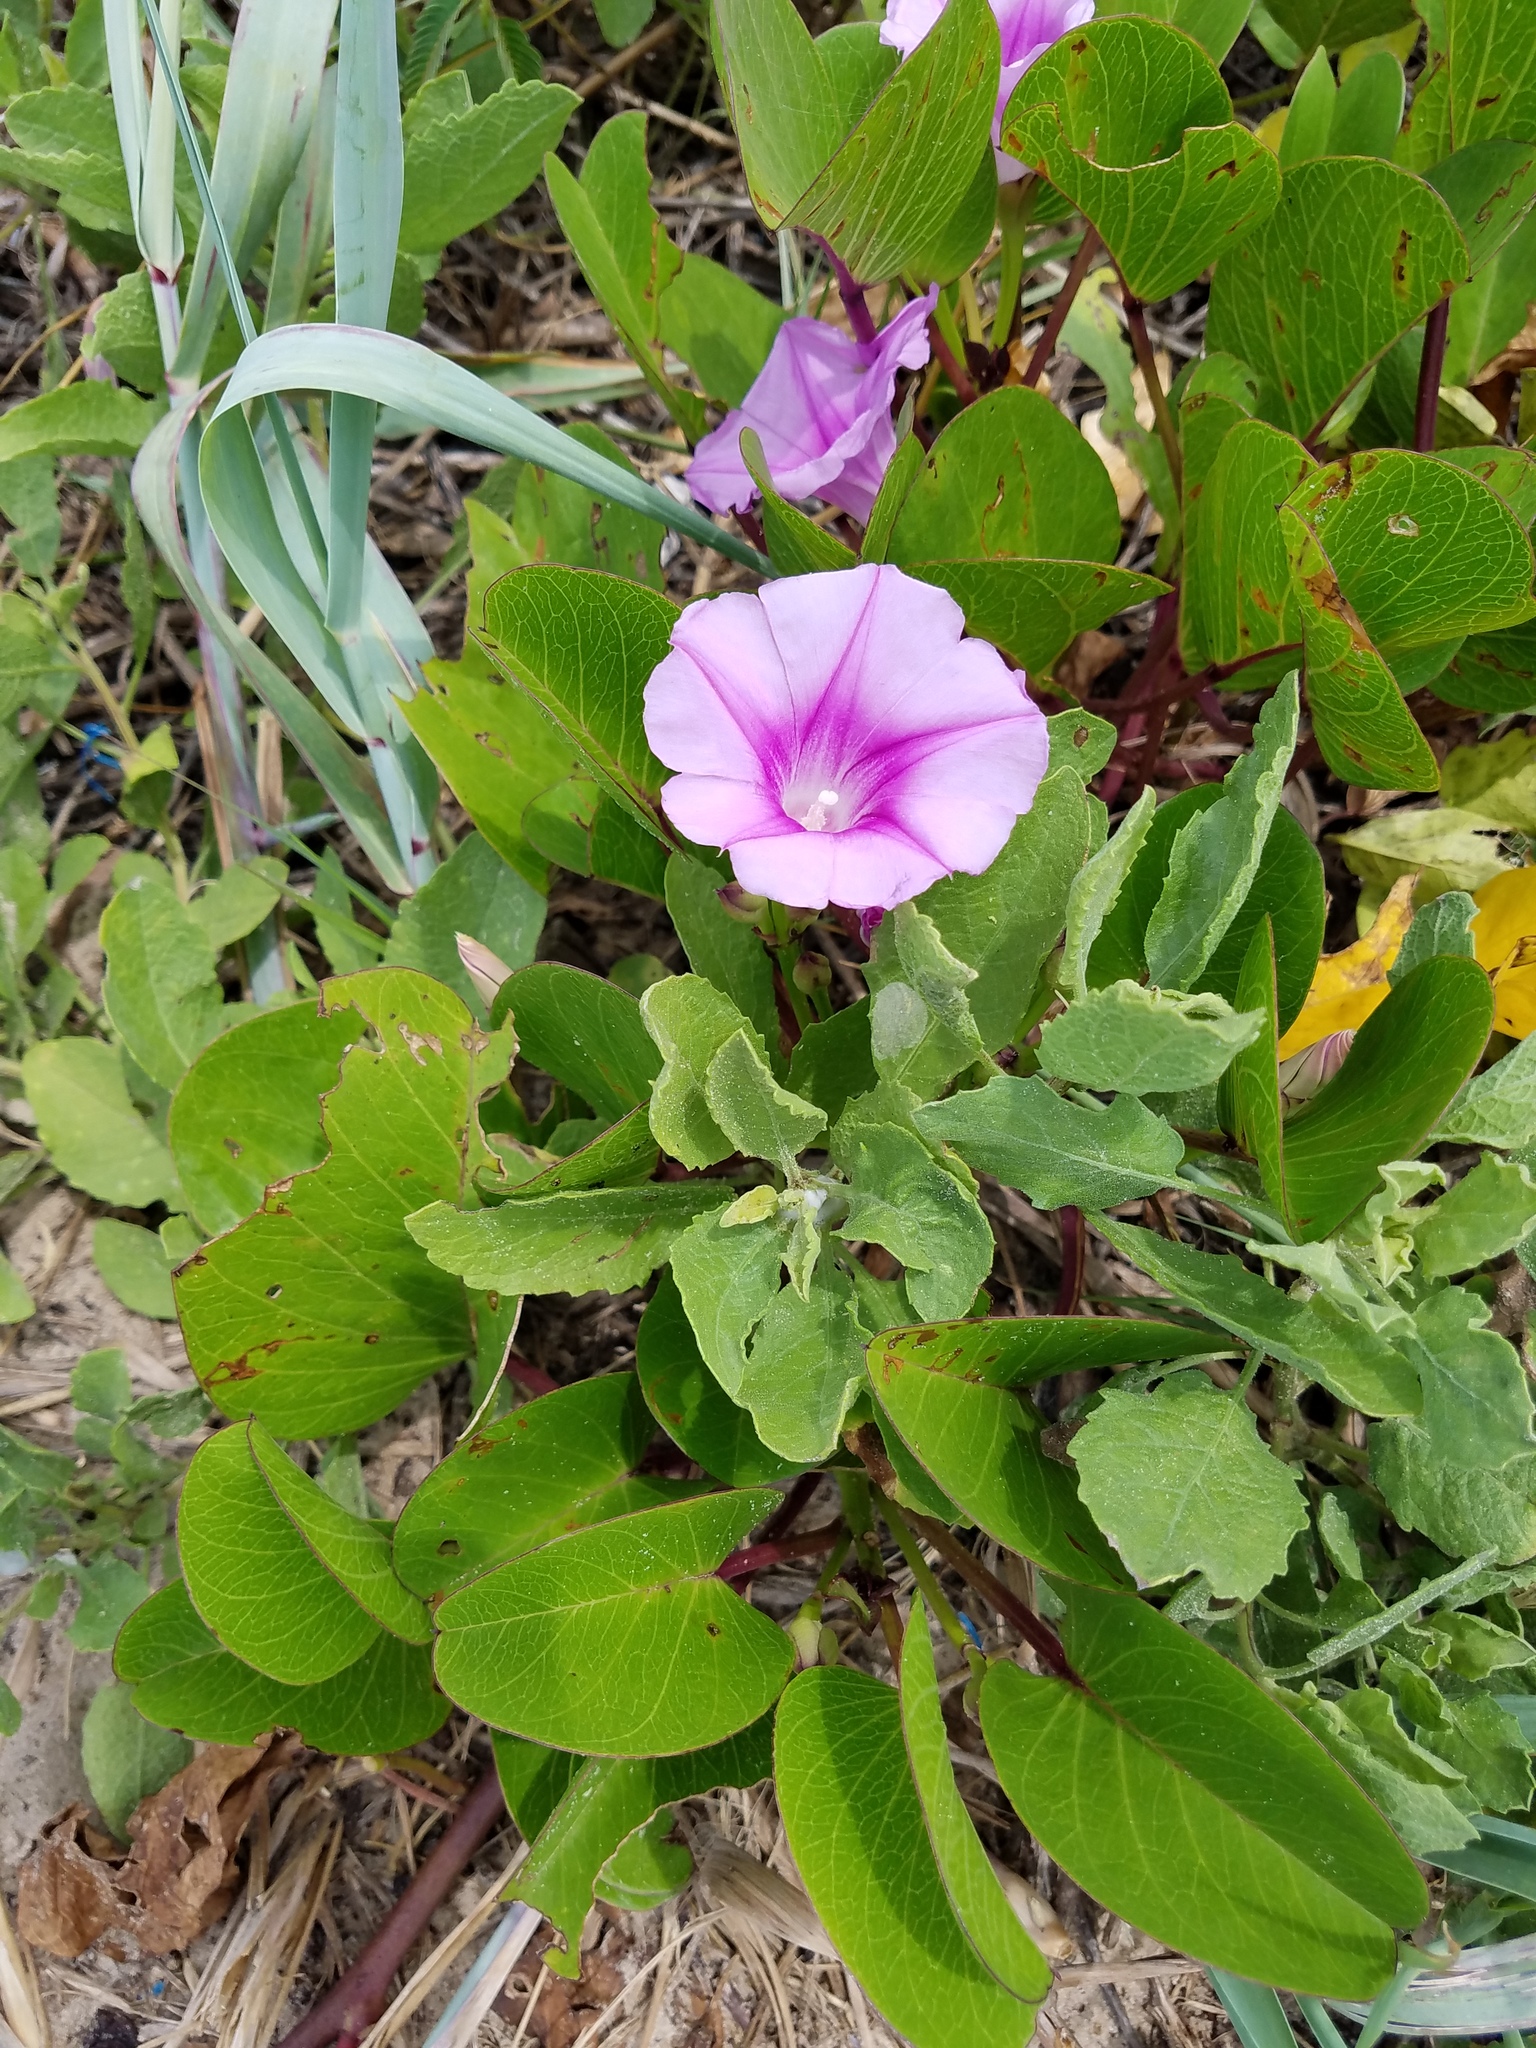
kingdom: Plantae
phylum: Tracheophyta
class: Magnoliopsida
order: Solanales
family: Convolvulaceae
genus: Ipomoea
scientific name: Ipomoea pes-caprae
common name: Beach morning glory
